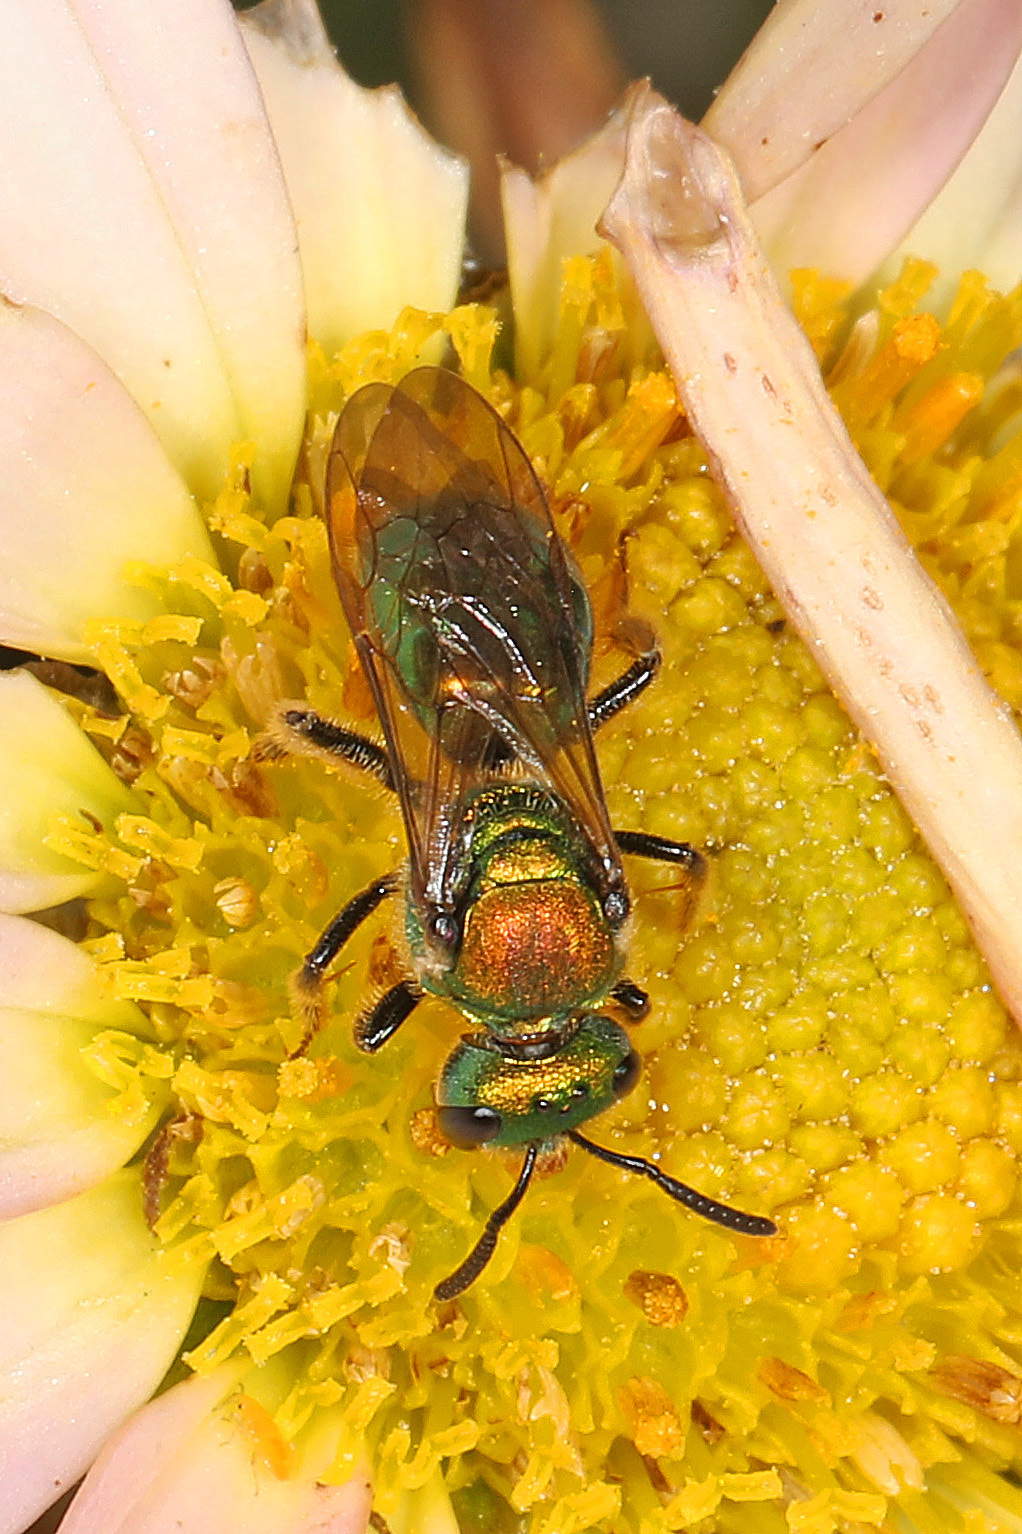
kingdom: Animalia
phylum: Arthropoda
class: Insecta
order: Hymenoptera
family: Halictidae
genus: Augochlora
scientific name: Augochlora pura
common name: Pure green sweat bee
